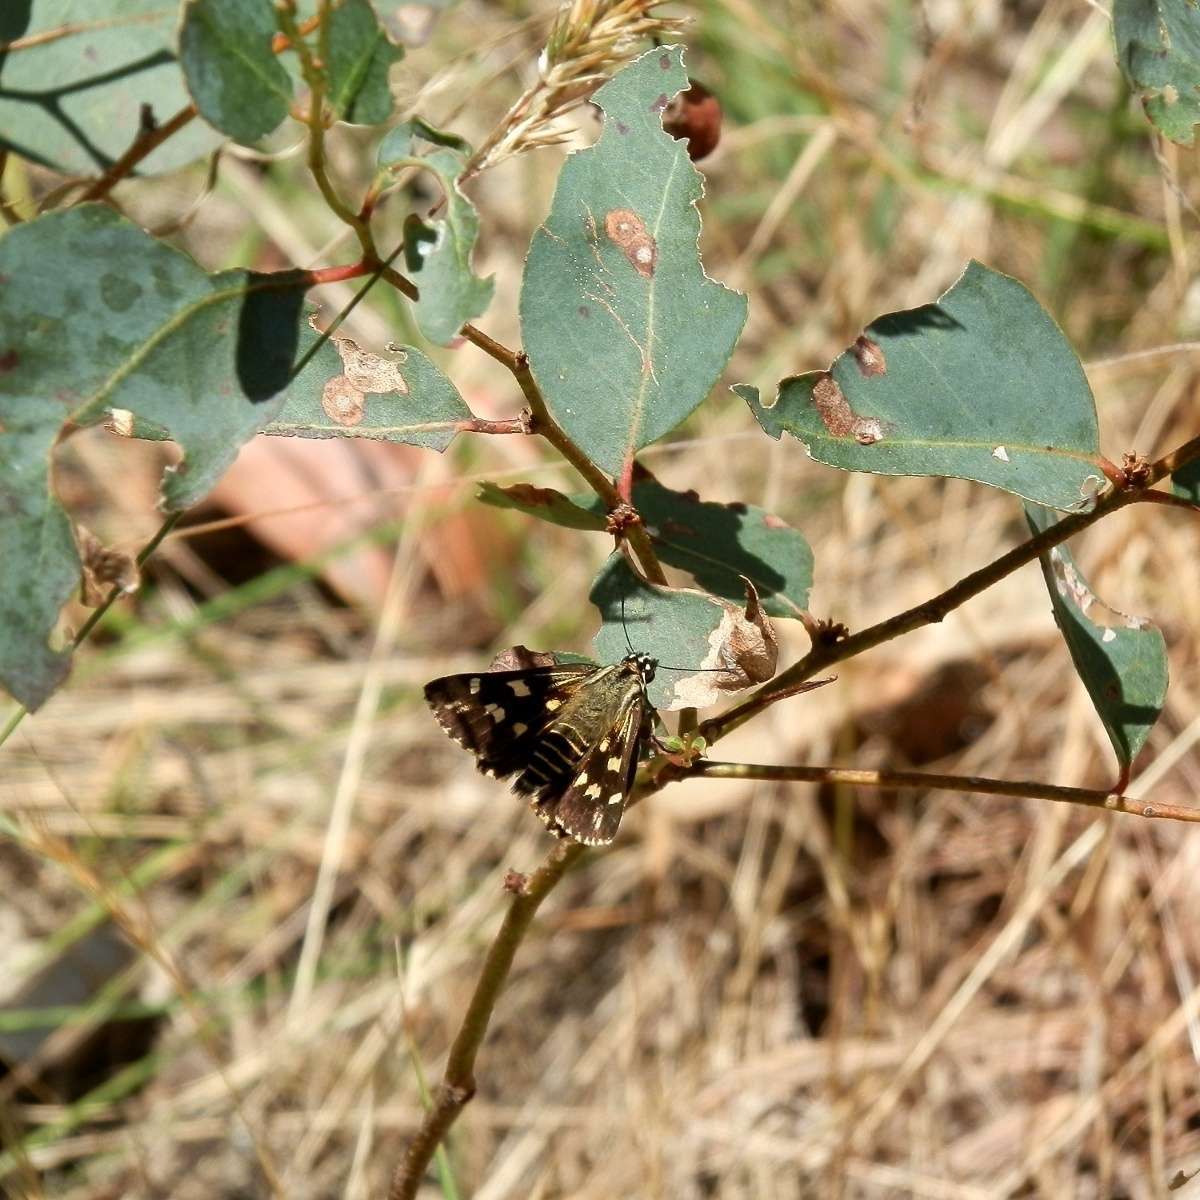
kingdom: Animalia
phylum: Arthropoda
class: Insecta
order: Lepidoptera
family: Hesperiidae
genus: Hesperilla
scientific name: Hesperilla ornata
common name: Spotted sedge-skipper
